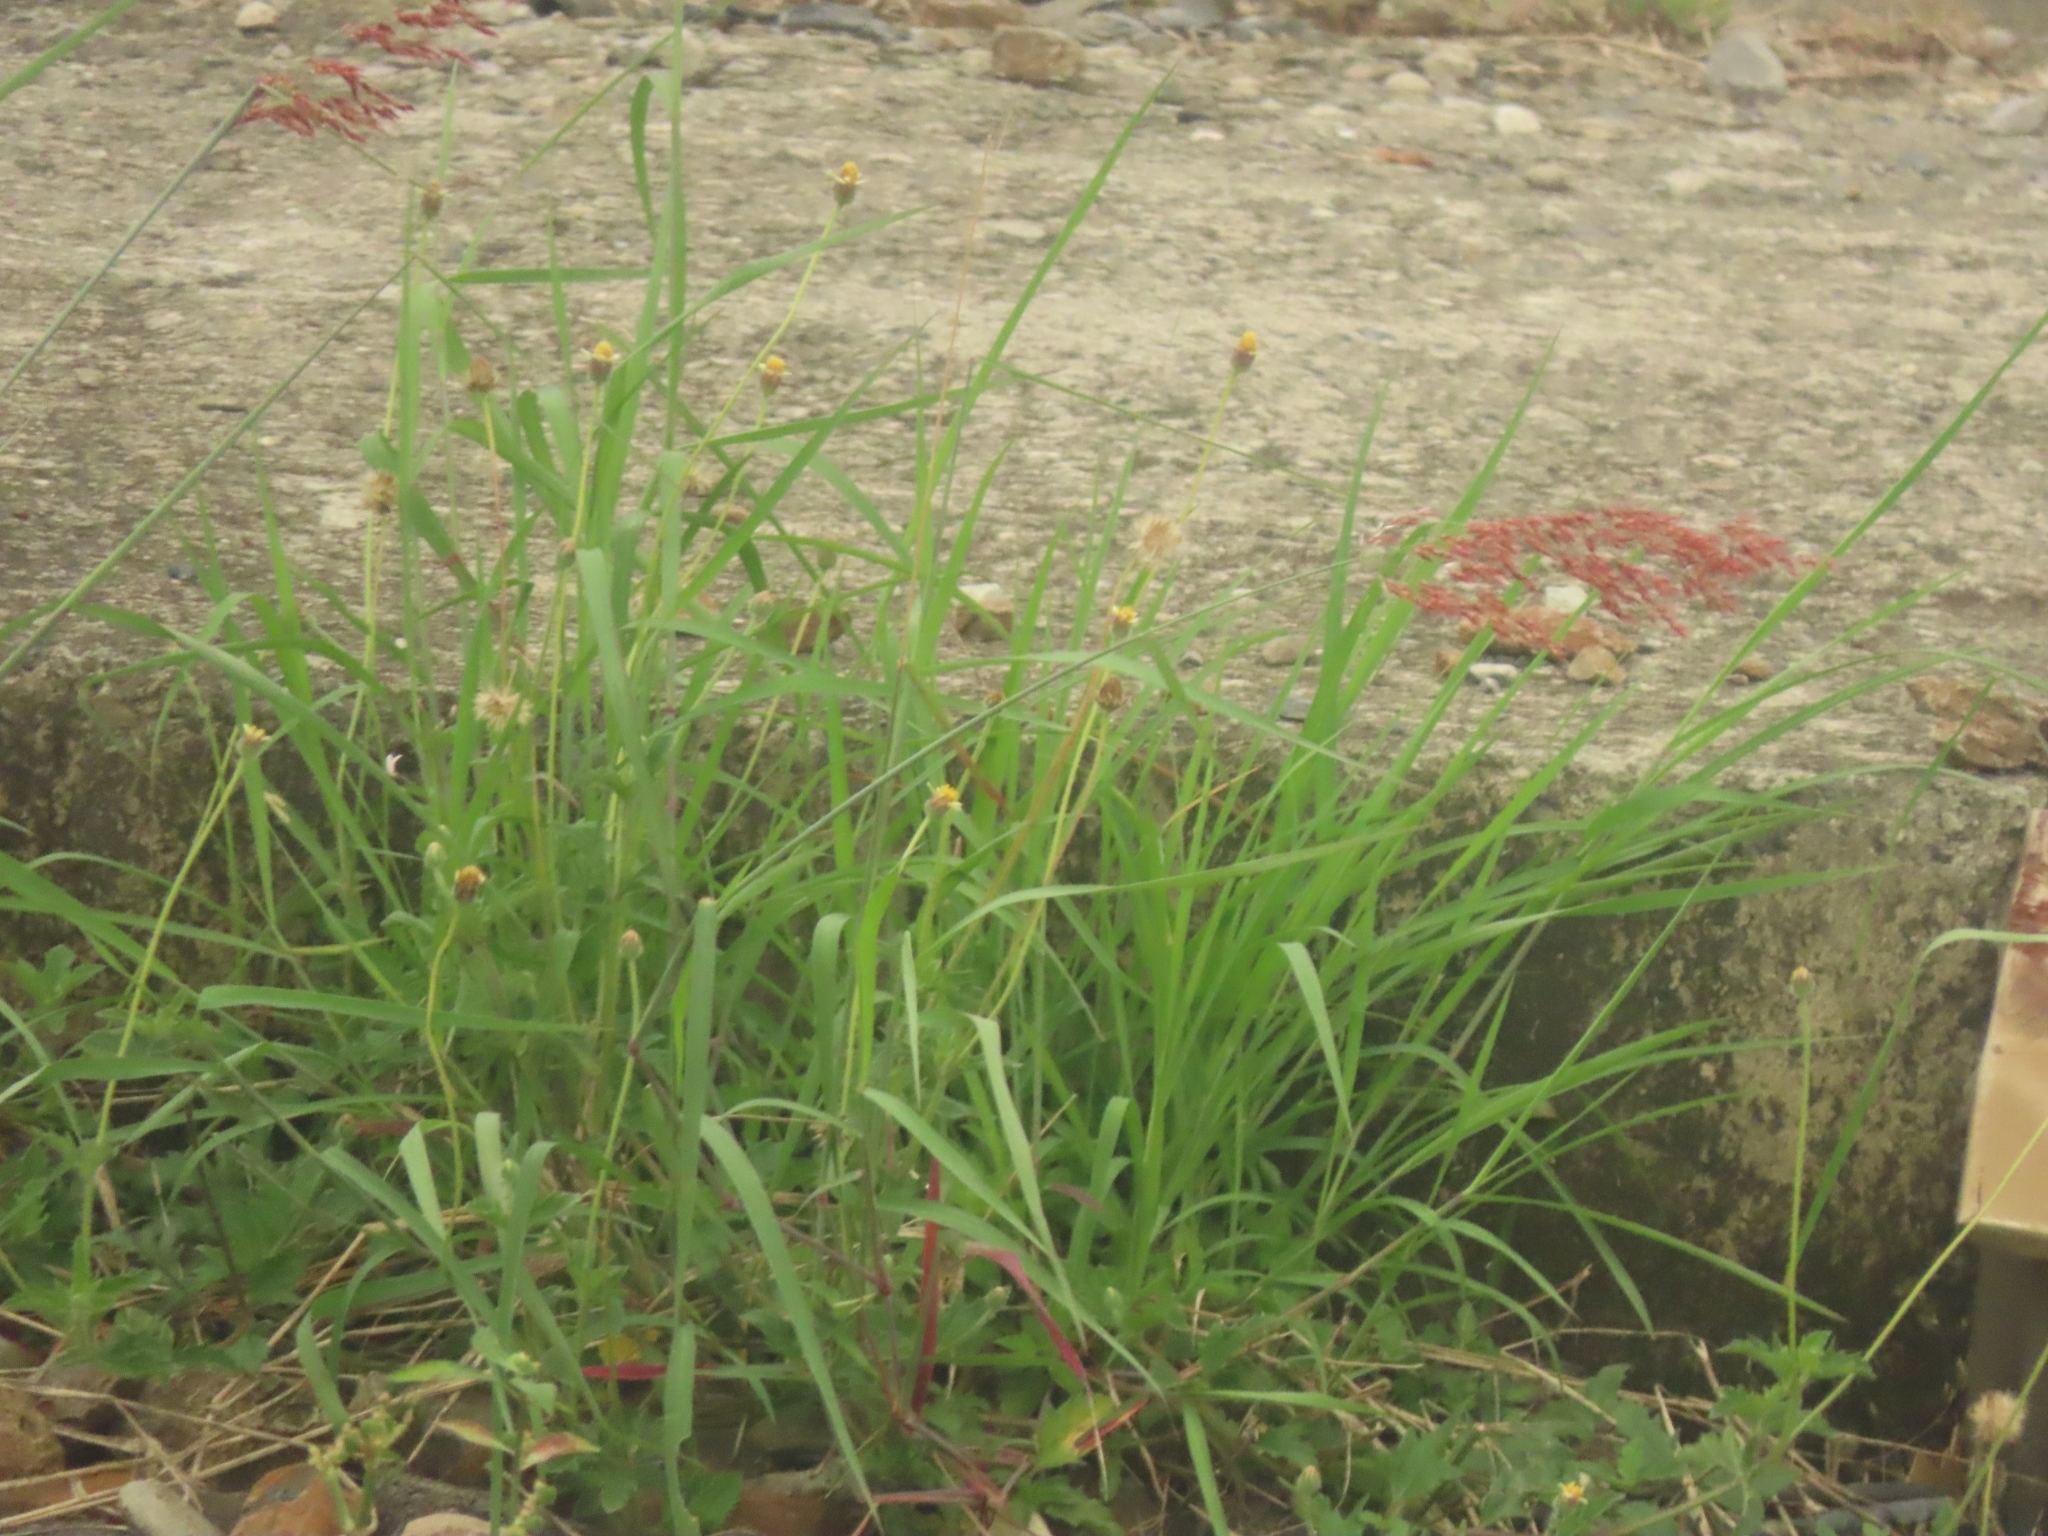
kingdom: Plantae
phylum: Tracheophyta
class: Liliopsida
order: Poales
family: Poaceae
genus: Melinis
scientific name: Melinis repens
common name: Rose natal grass
